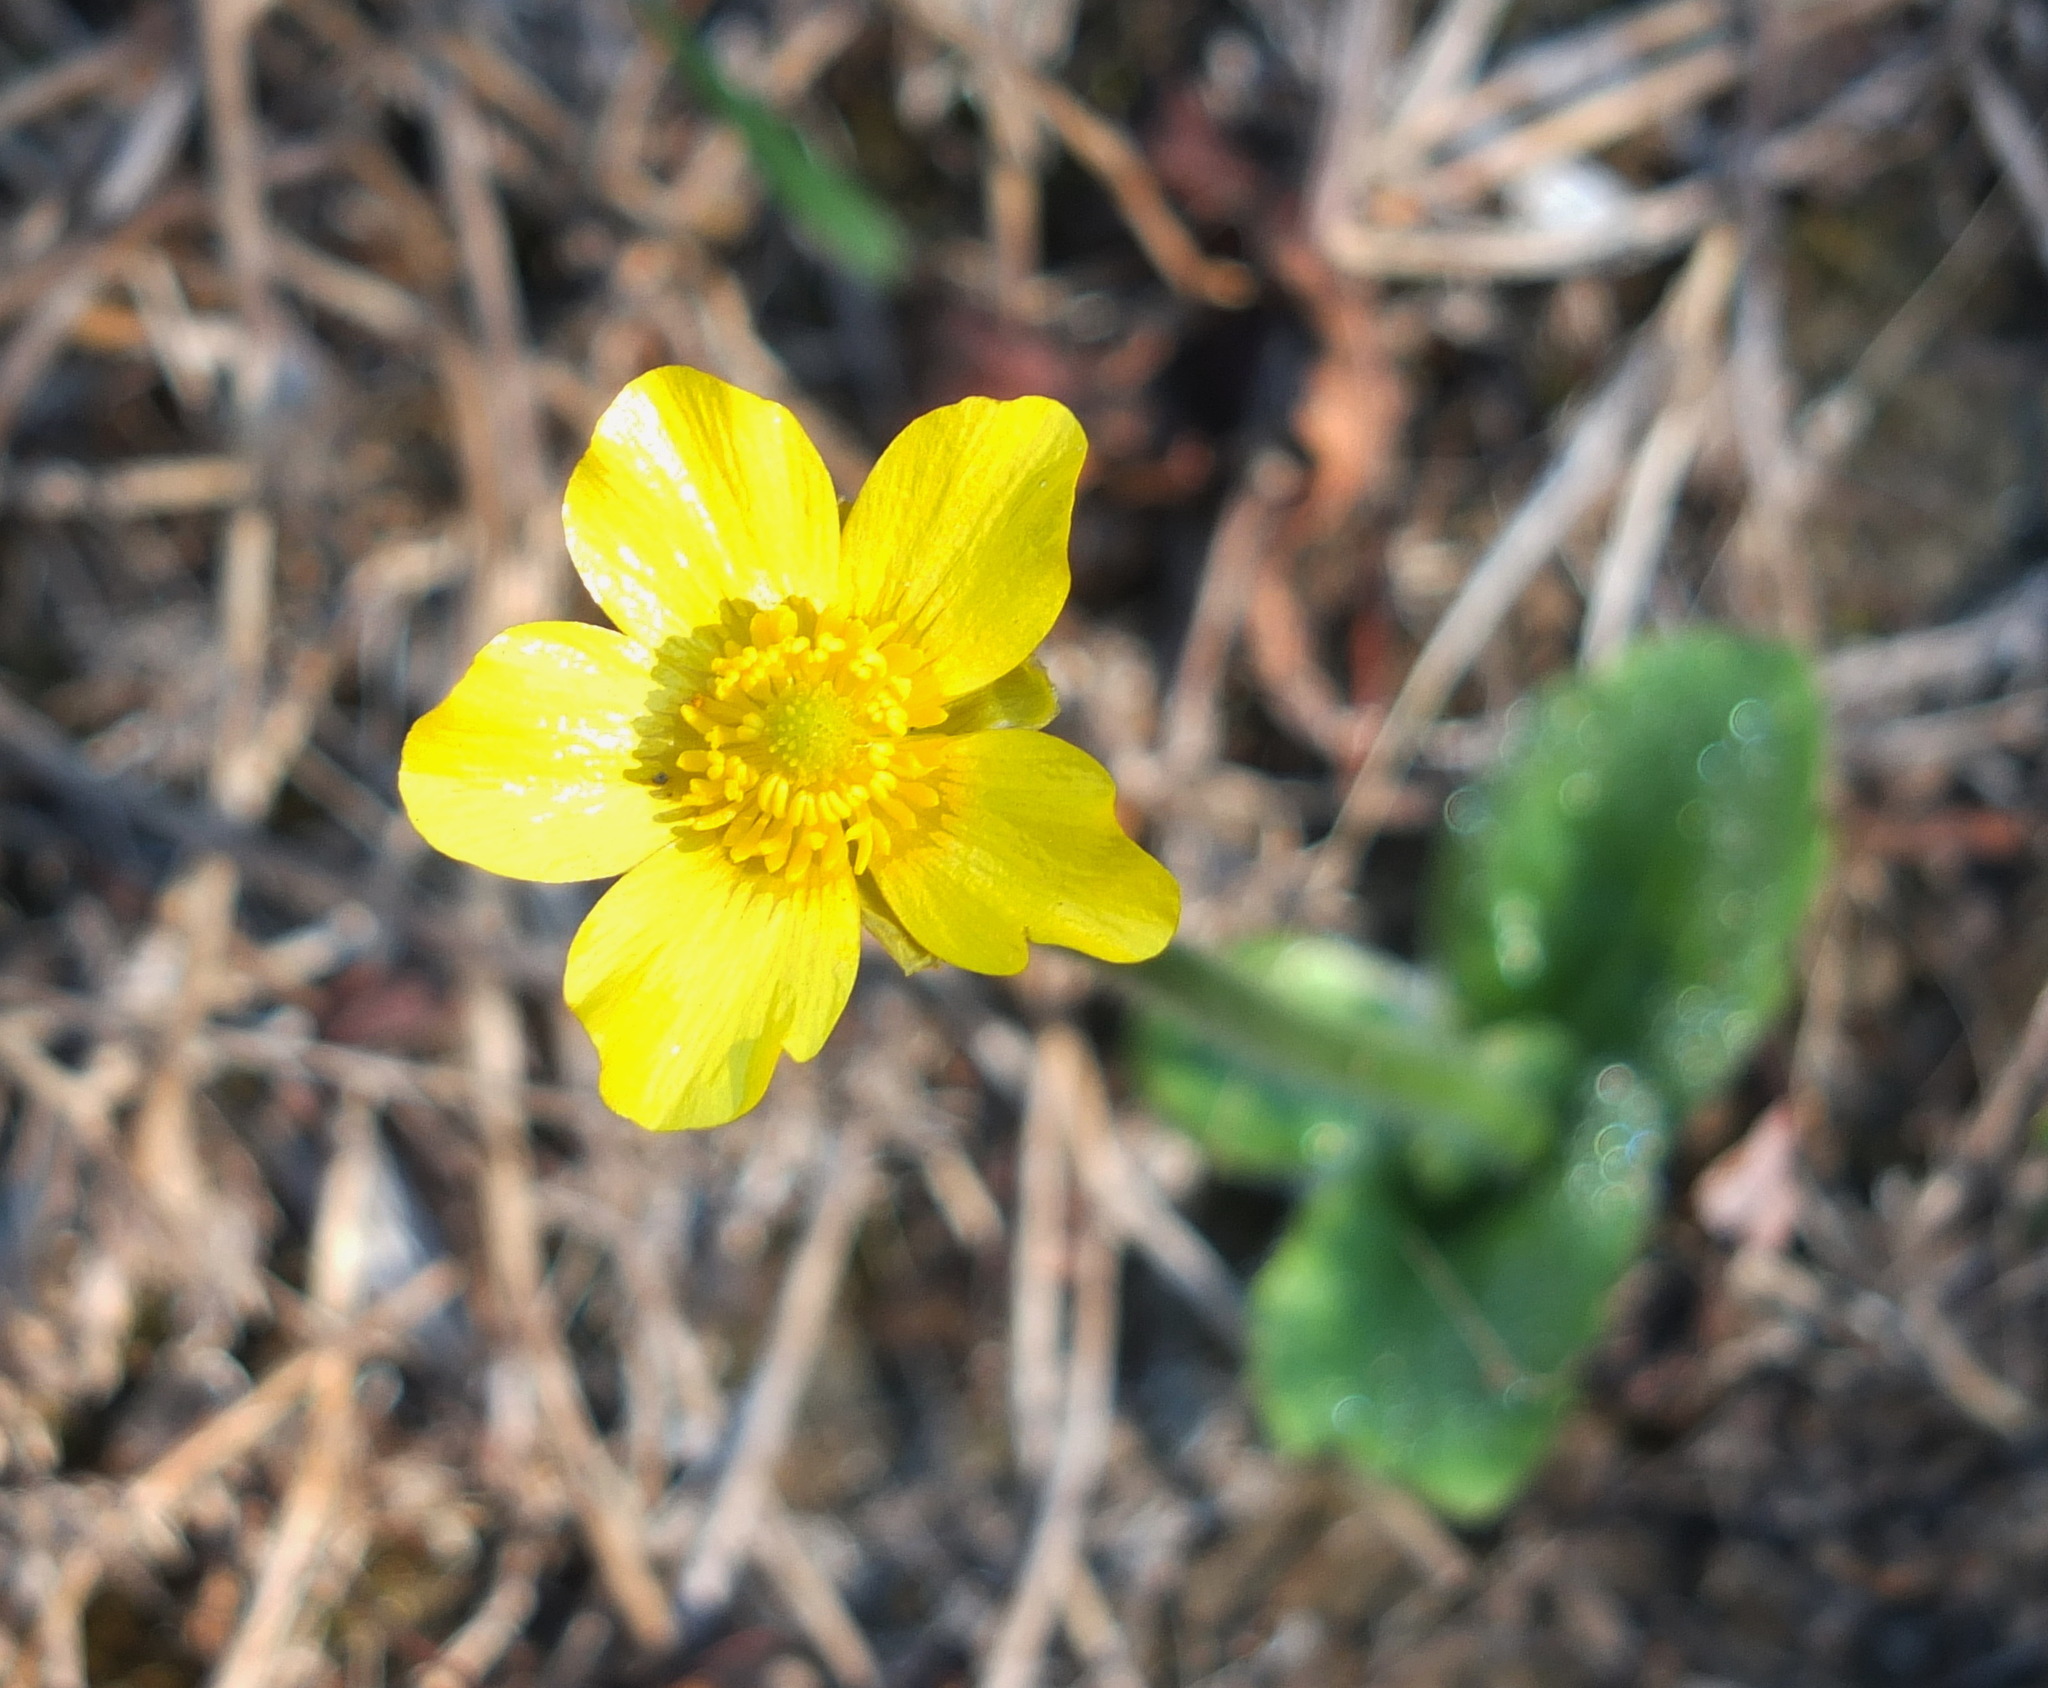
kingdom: Plantae
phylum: Tracheophyta
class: Magnoliopsida
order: Ranunculales
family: Ranunculaceae
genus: Ranunculus
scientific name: Ranunculus bullatus
